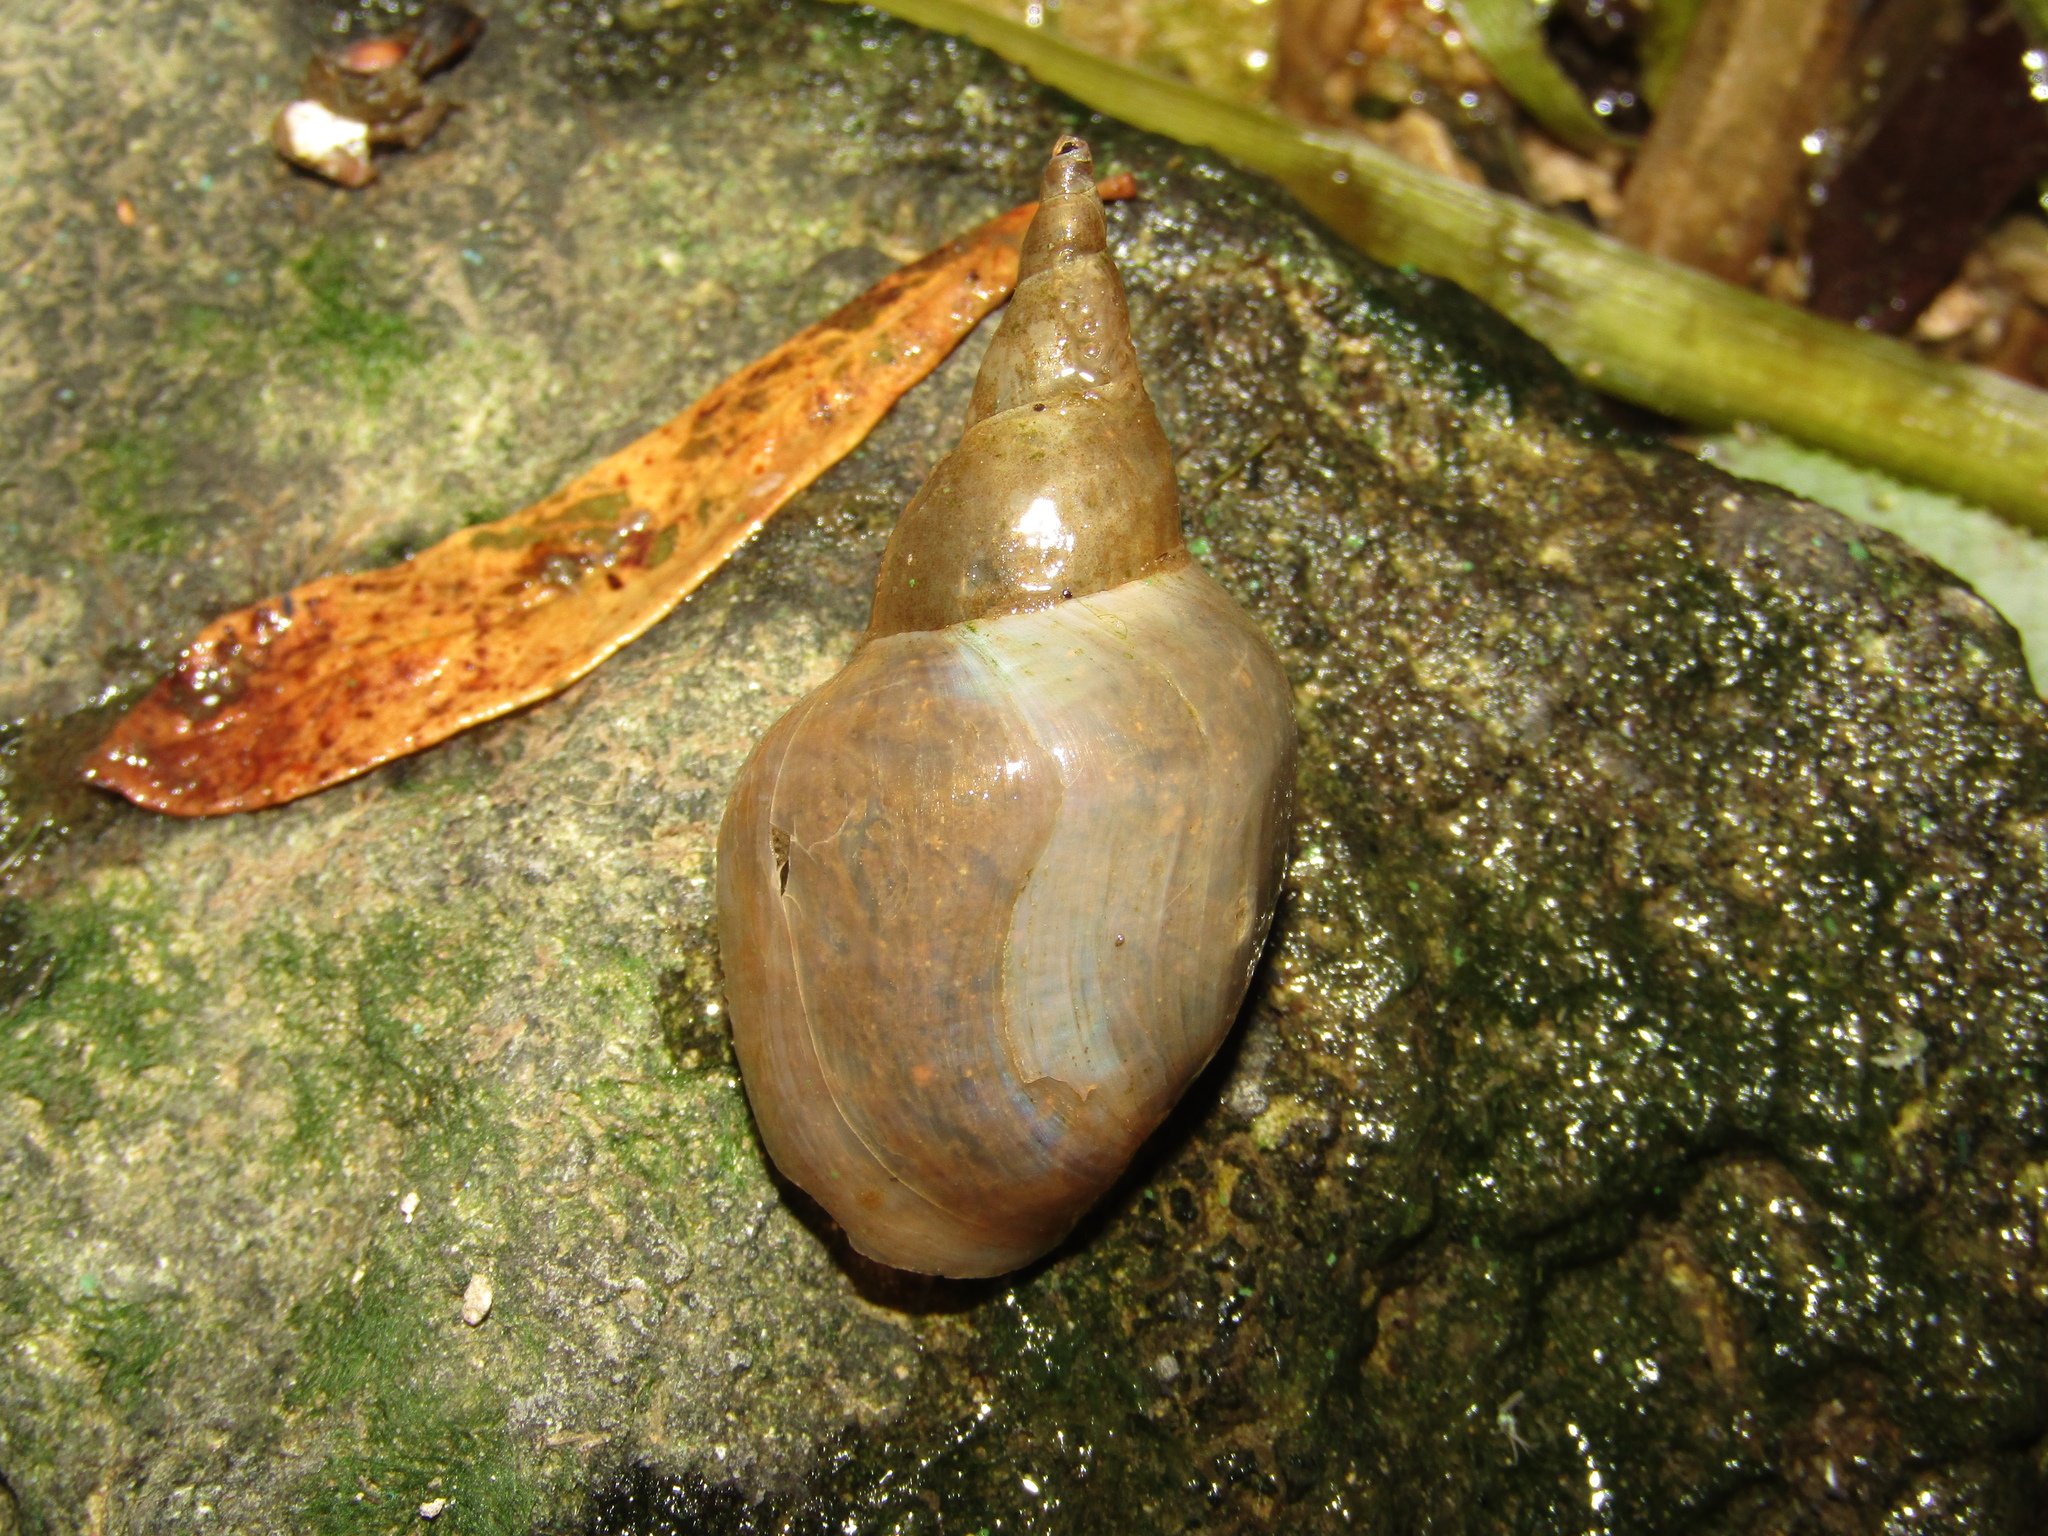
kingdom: Animalia
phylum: Mollusca
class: Gastropoda
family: Lymnaeidae
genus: Lymnaea
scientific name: Lymnaea stagnalis
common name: Great pond snail
